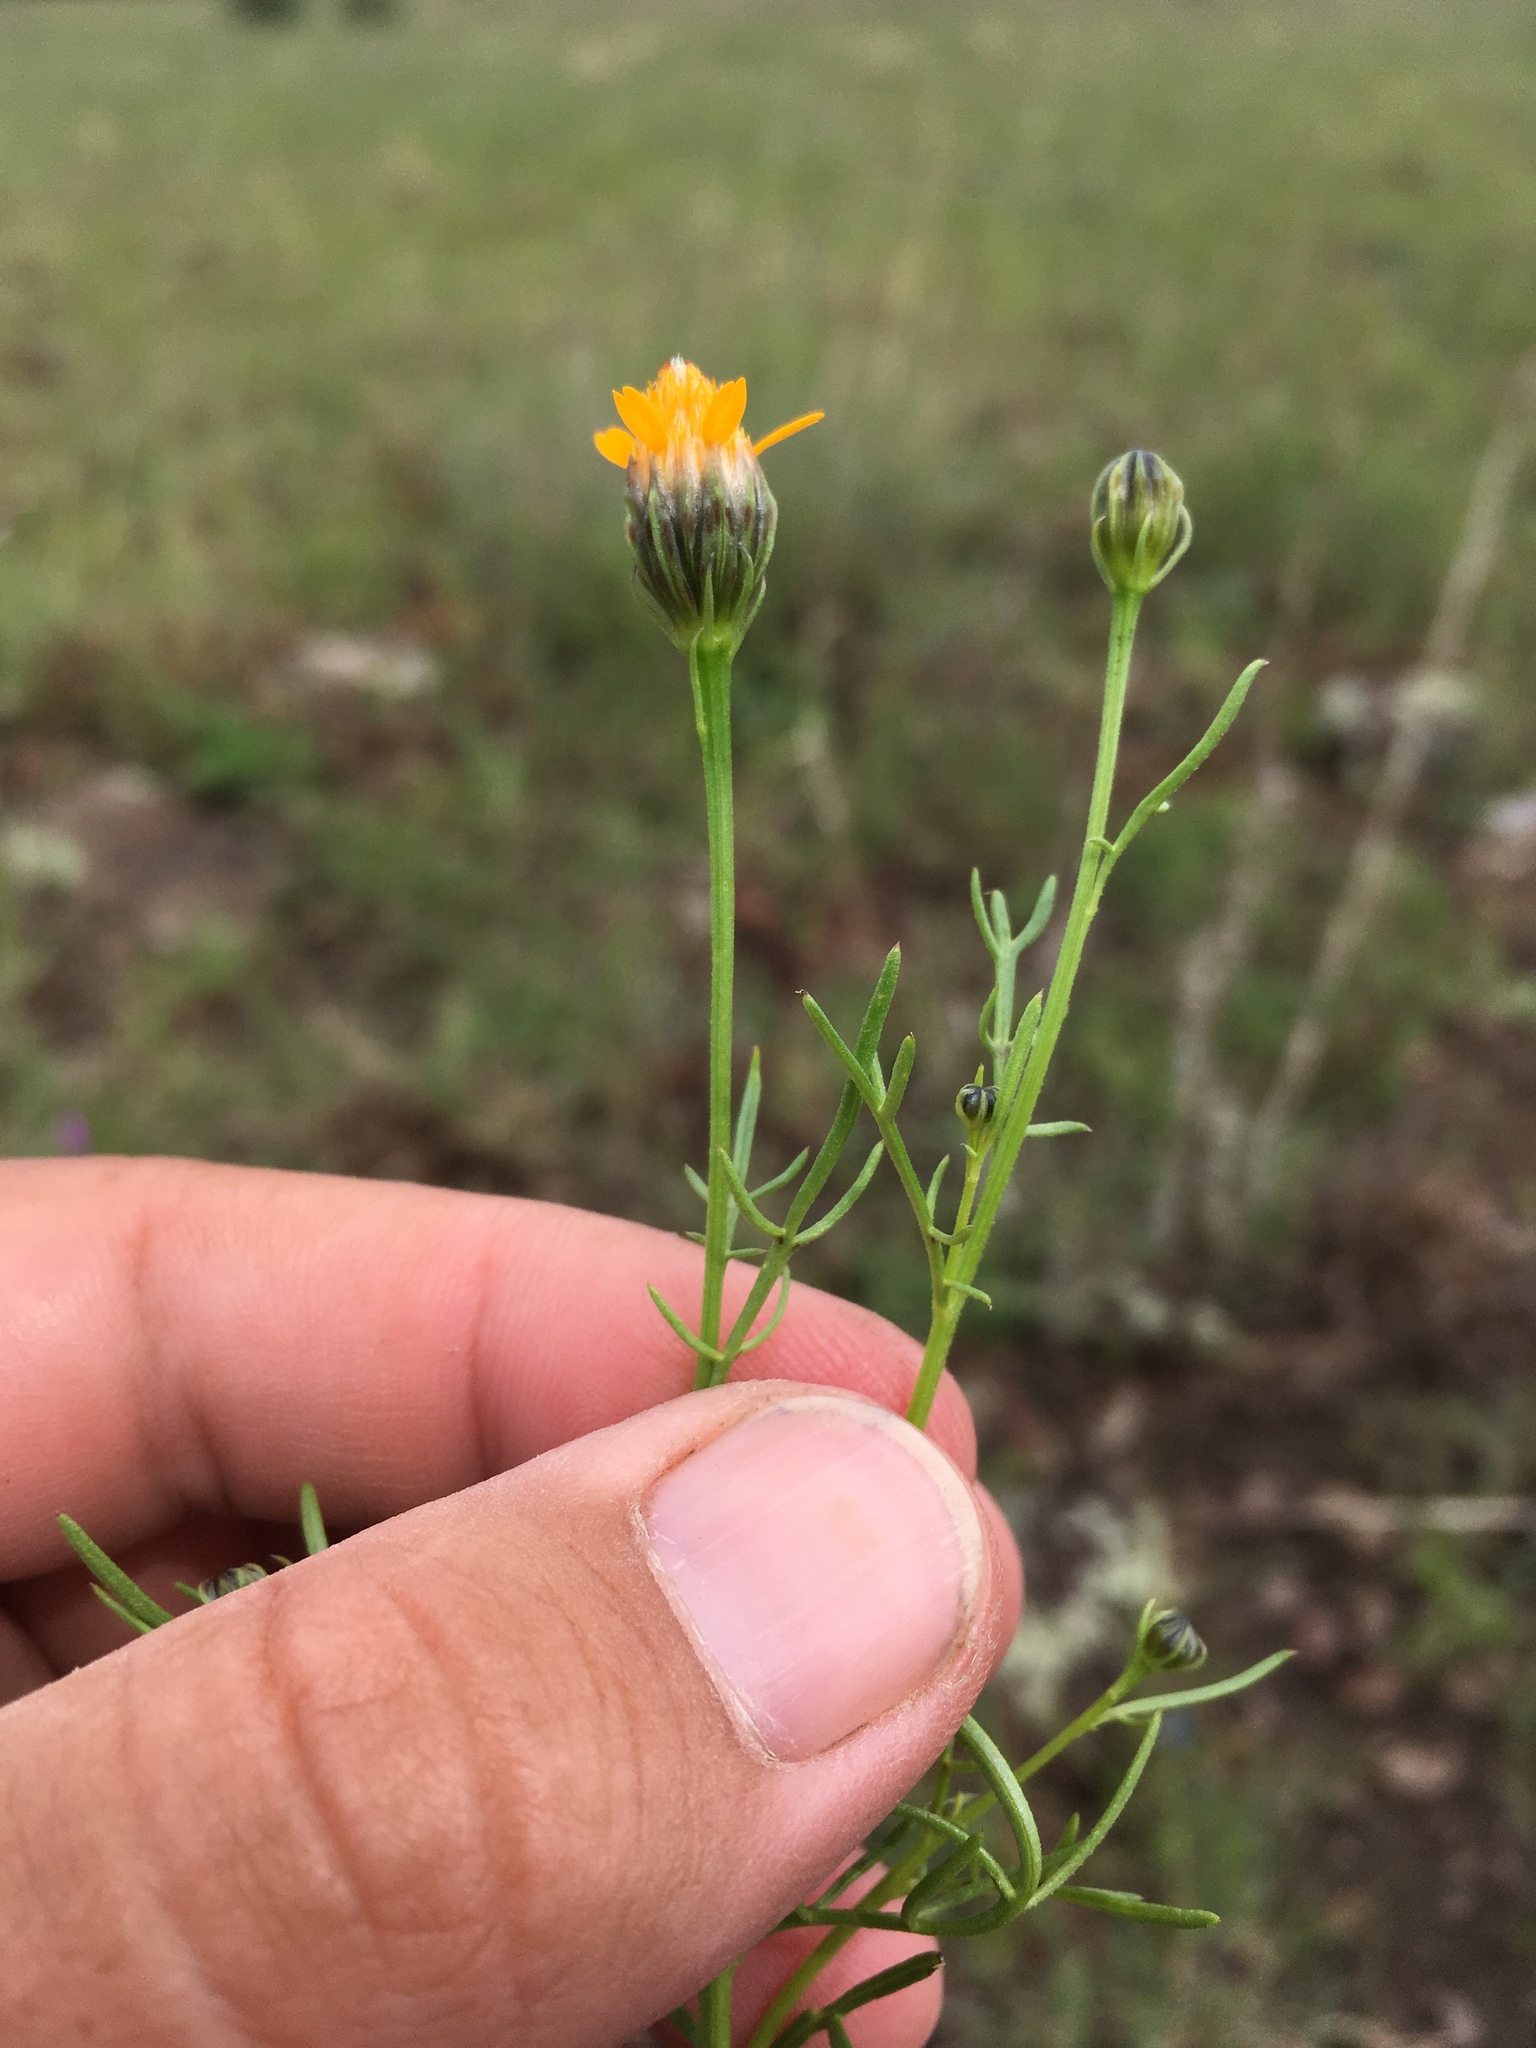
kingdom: Plantae
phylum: Tracheophyta
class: Magnoliopsida
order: Asterales
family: Asteraceae
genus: Adenophyllum
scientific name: Adenophyllum wrightii
